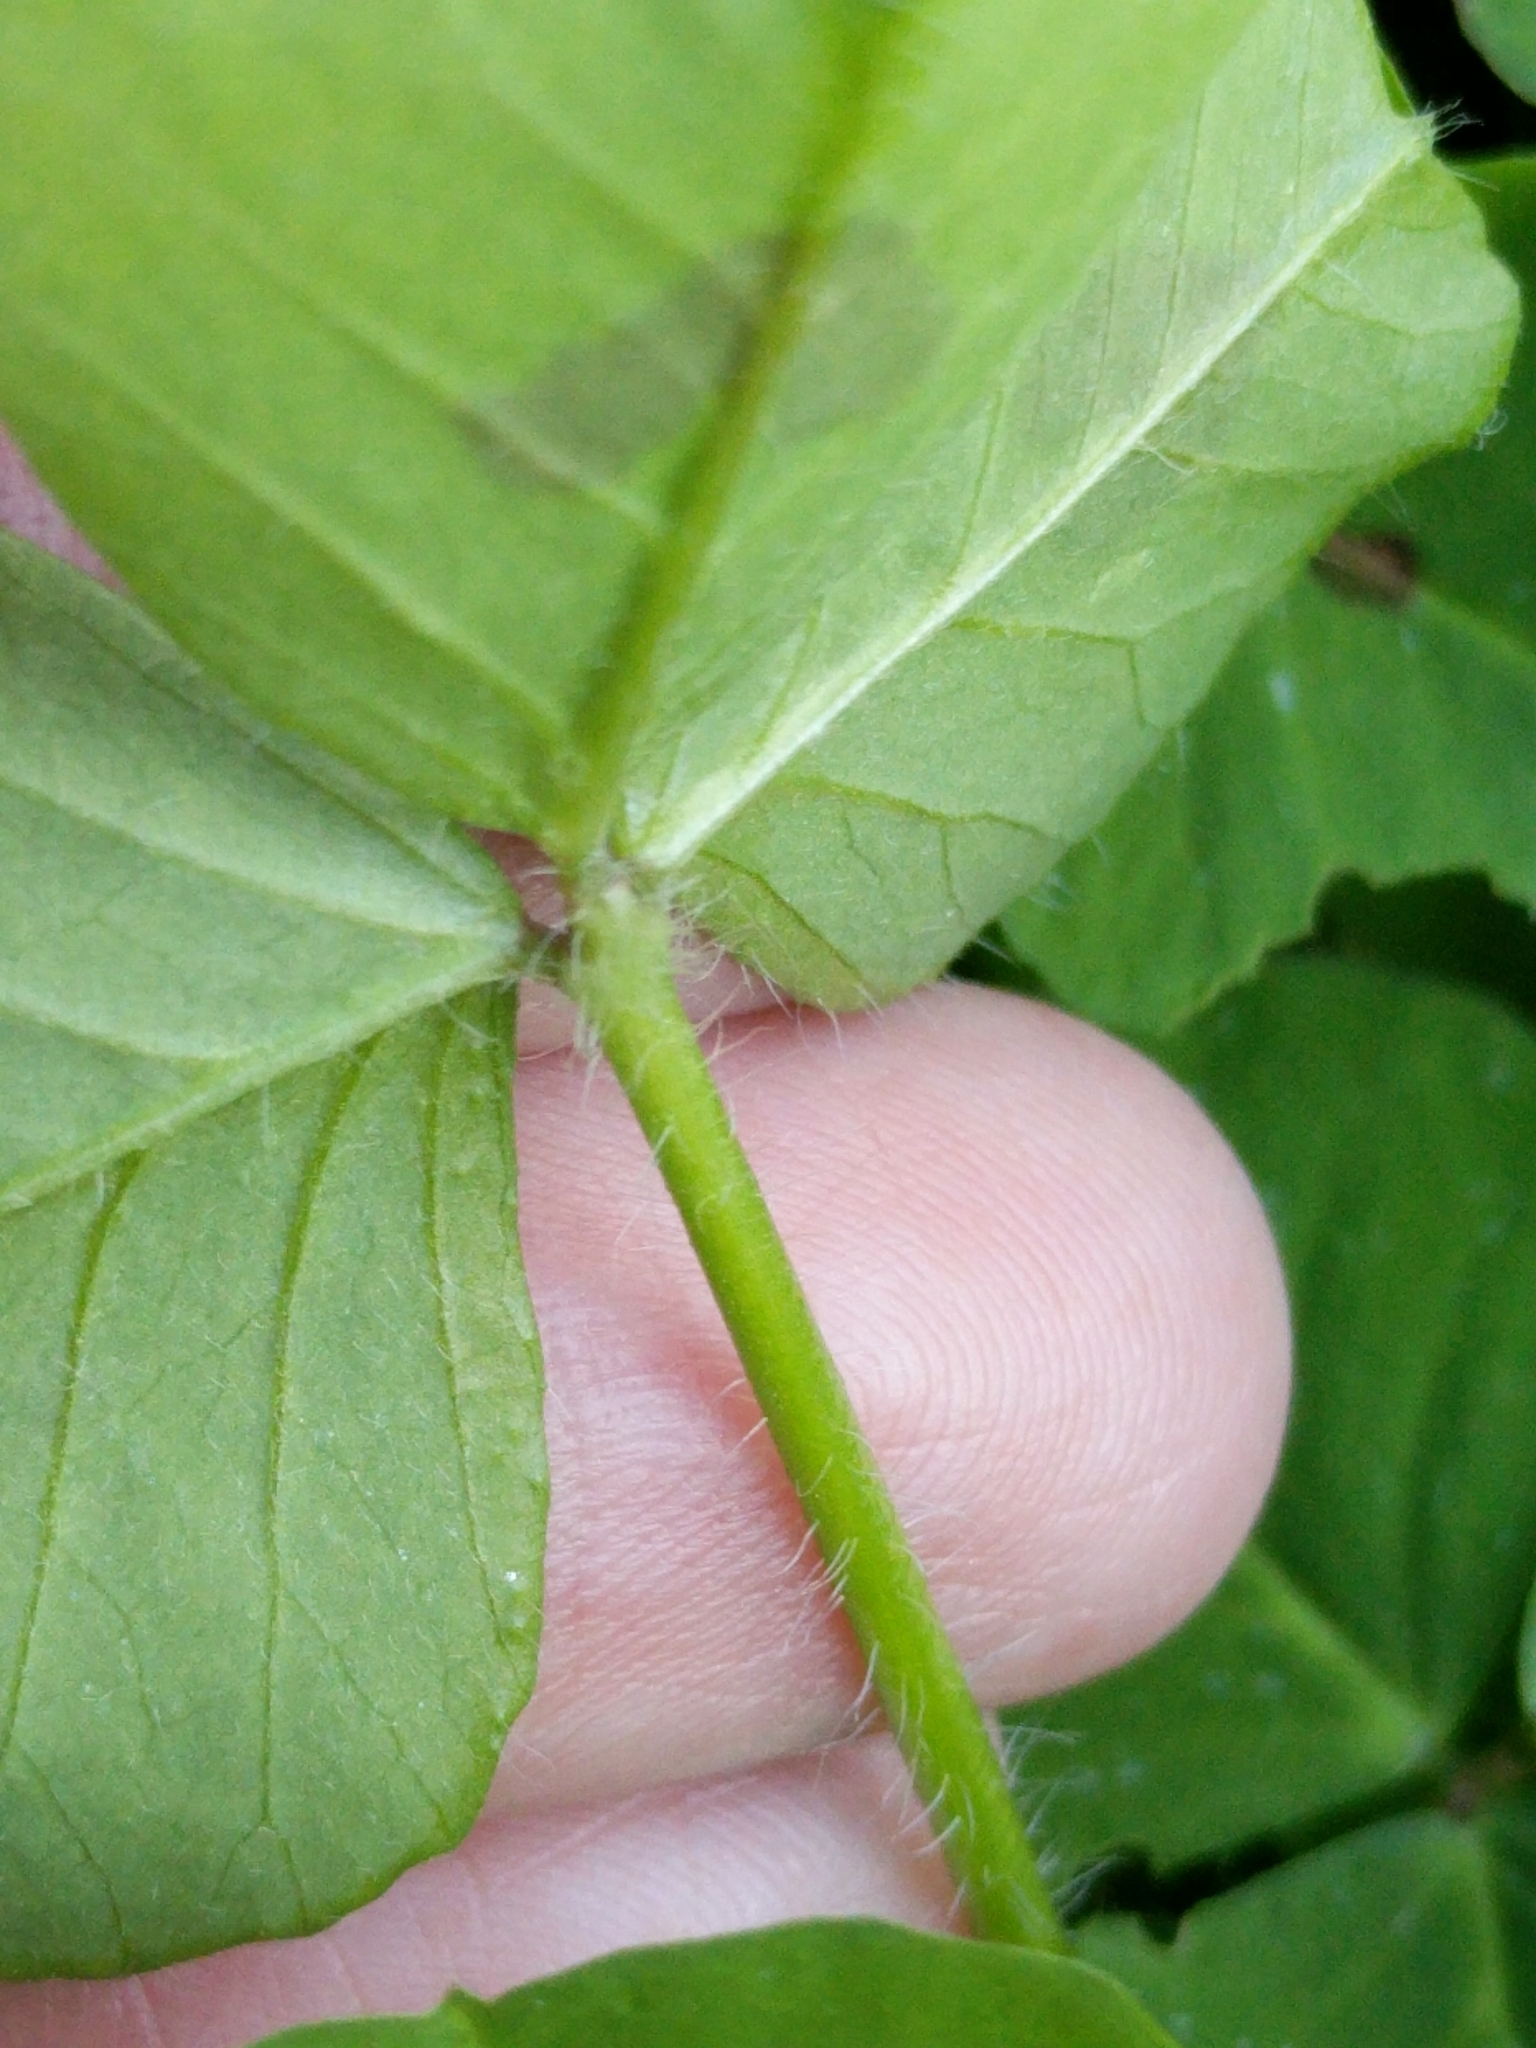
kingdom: Plantae
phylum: Tracheophyta
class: Magnoliopsida
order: Fabales
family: Fabaceae
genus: Medicago
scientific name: Medicago arabica
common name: Spotted medick
